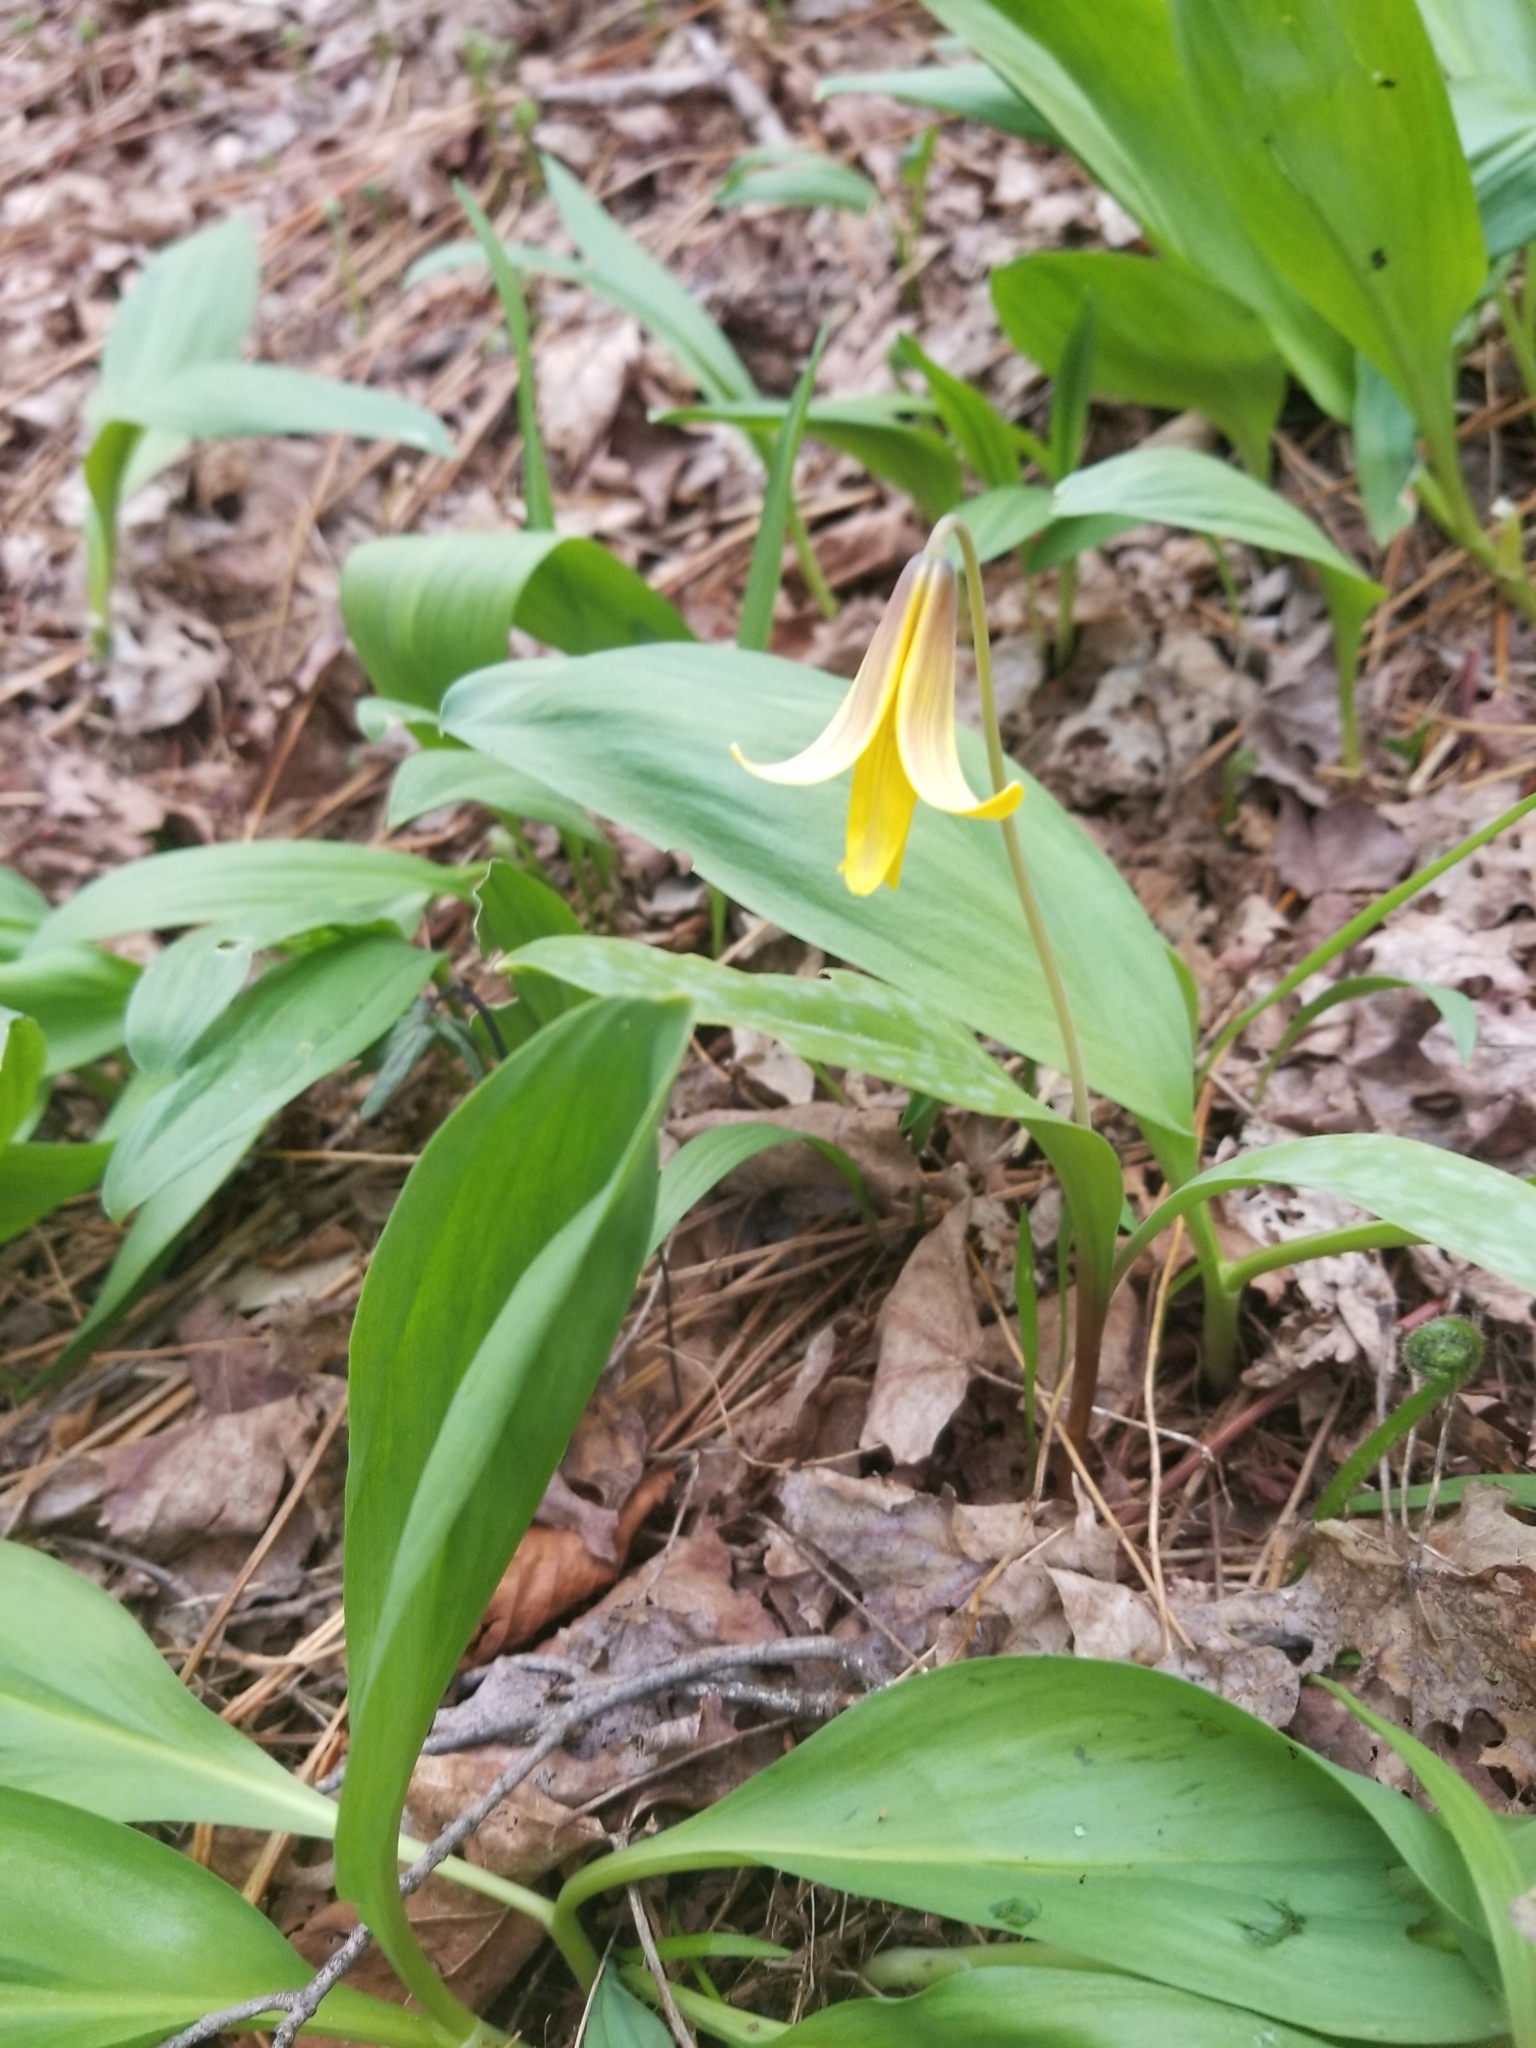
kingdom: Plantae
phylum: Tracheophyta
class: Liliopsida
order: Liliales
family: Liliaceae
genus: Erythronium
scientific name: Erythronium americanum
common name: Yellow adder's-tongue
